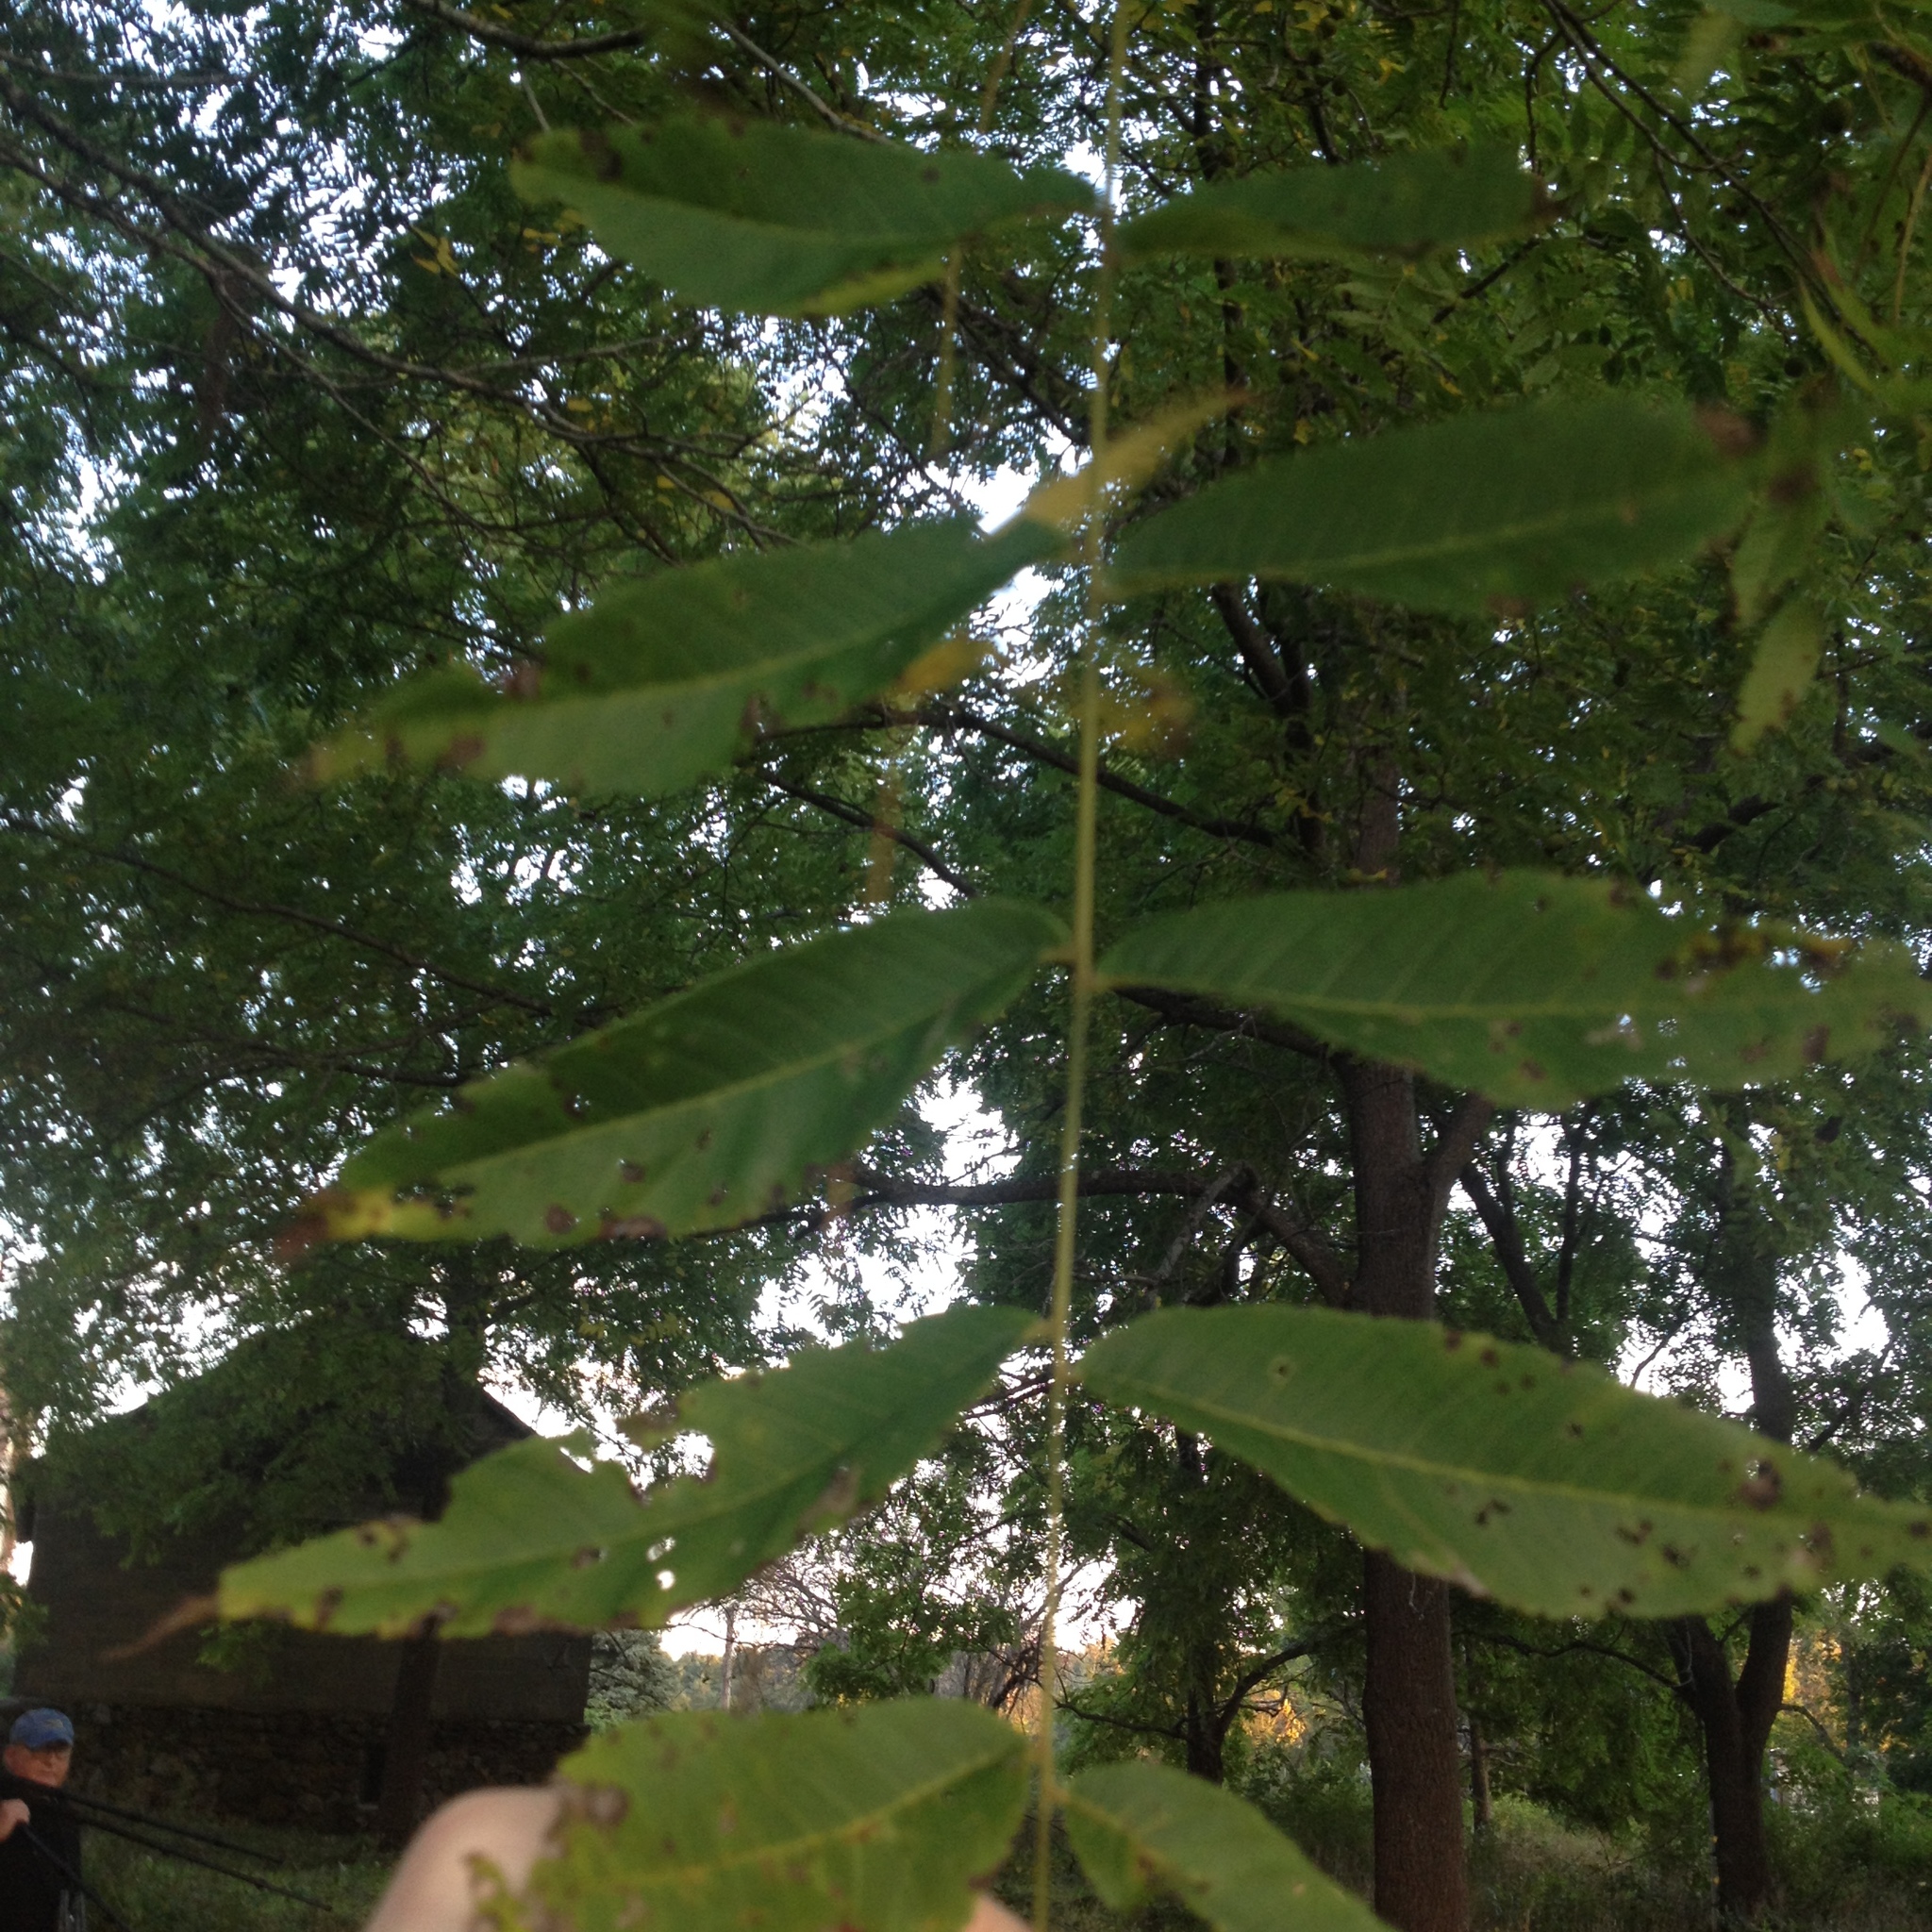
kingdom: Plantae
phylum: Tracheophyta
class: Magnoliopsida
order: Fagales
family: Juglandaceae
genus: Juglans
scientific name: Juglans nigra
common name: Black walnut
